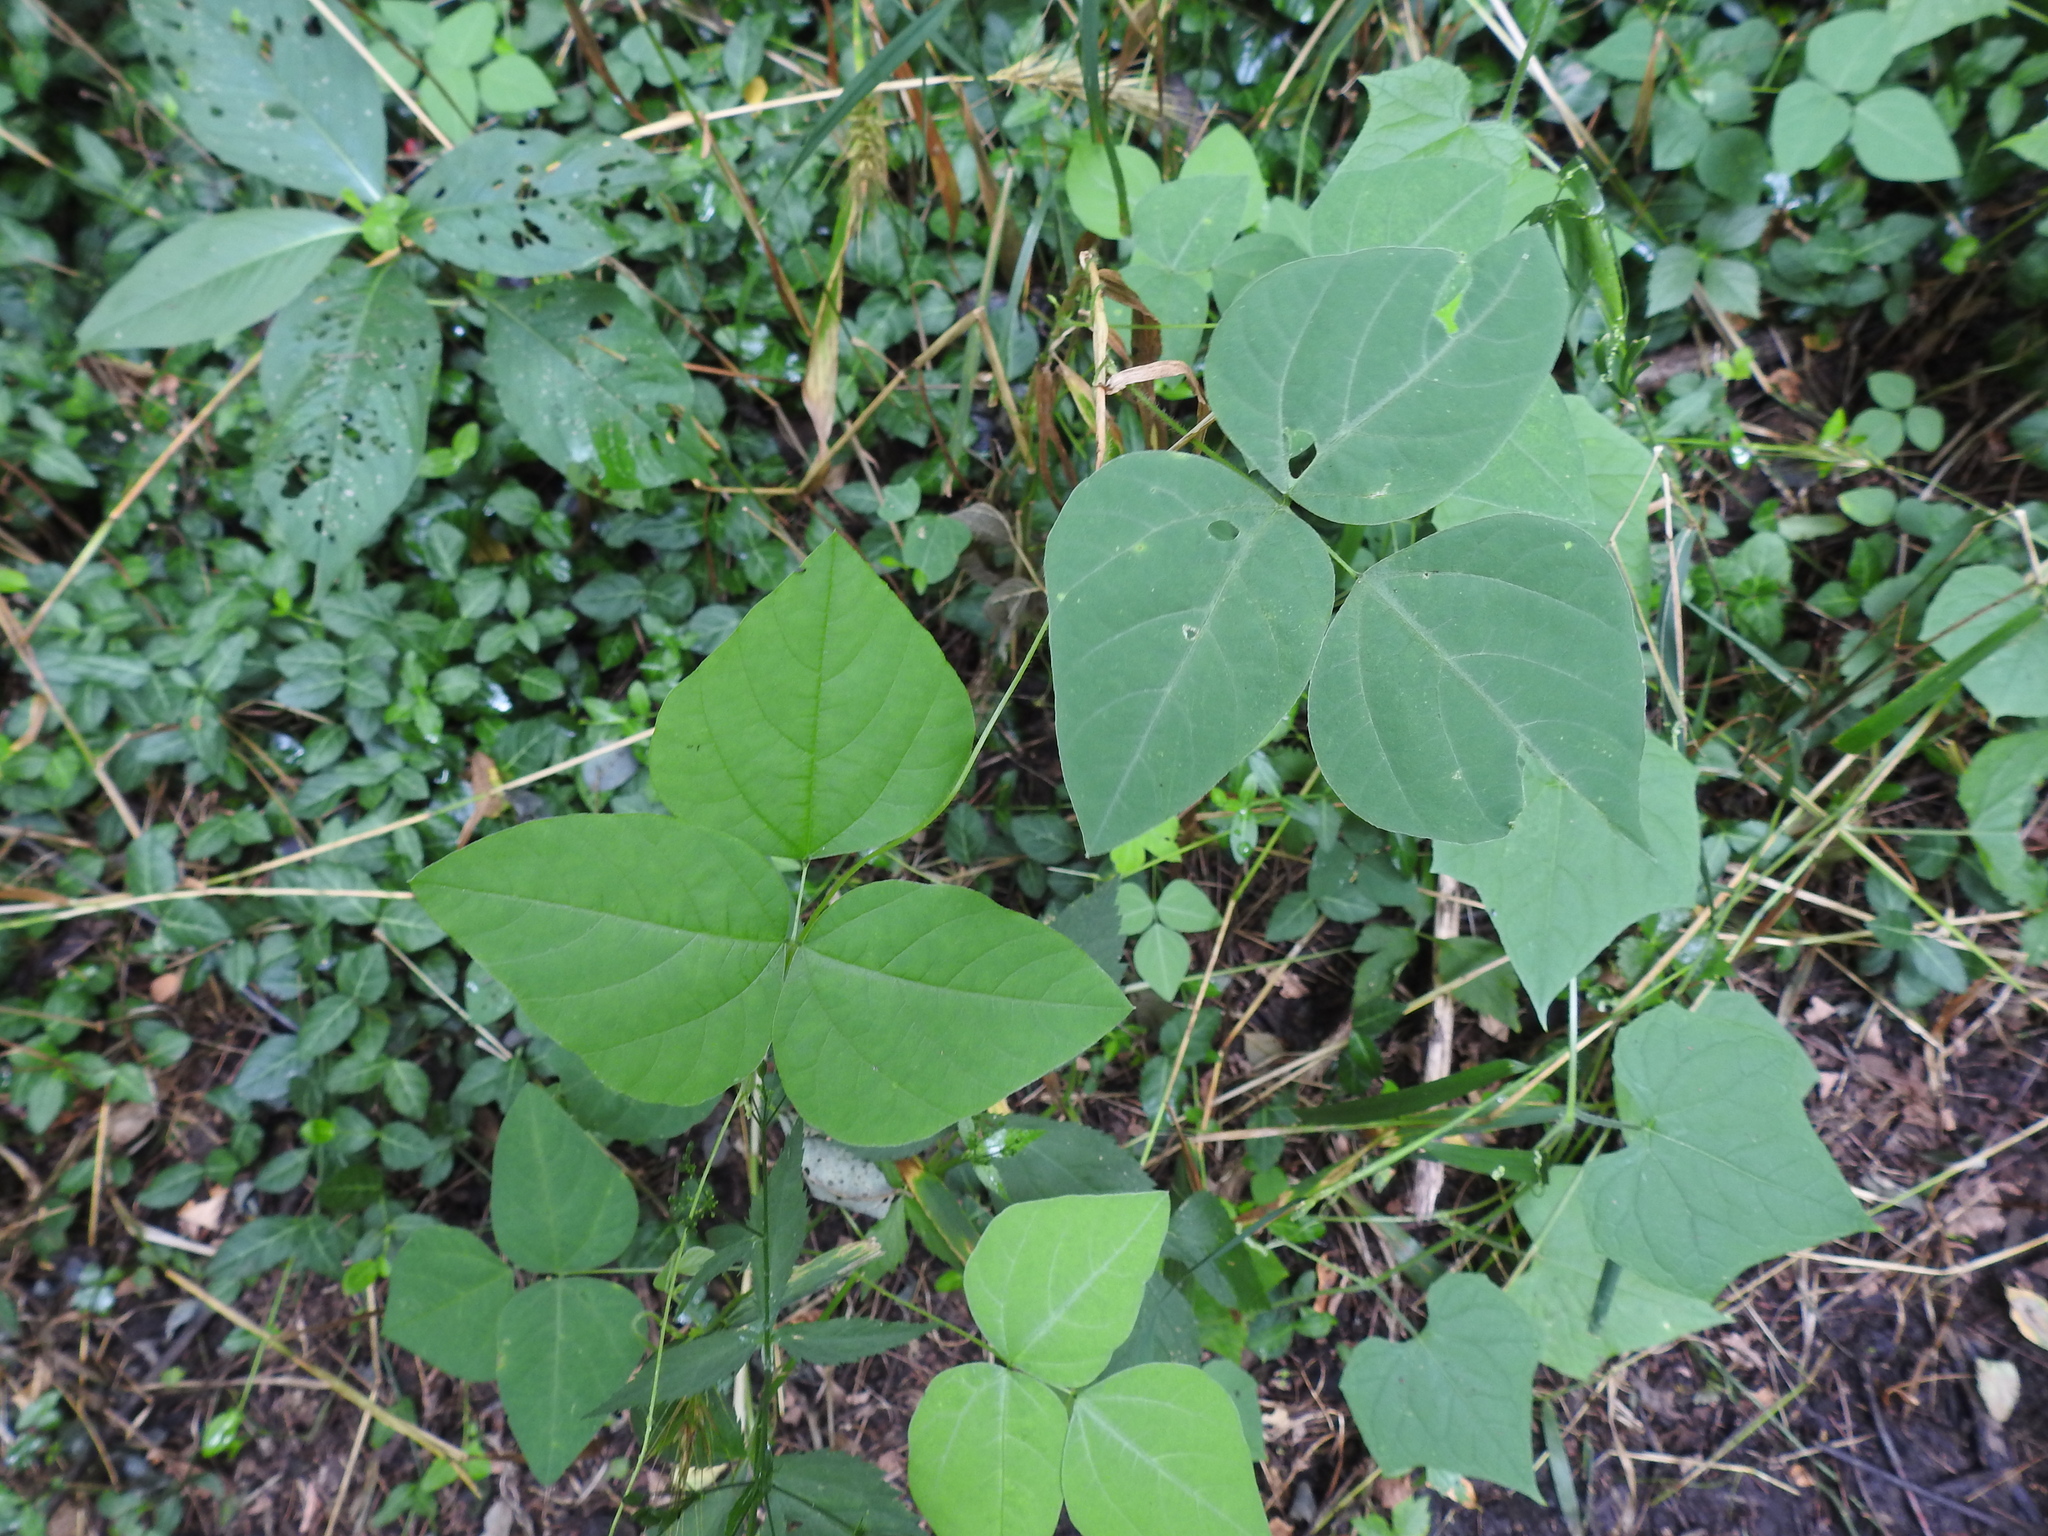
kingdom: Plantae
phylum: Tracheophyta
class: Magnoliopsida
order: Fabales
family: Fabaceae
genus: Amphicarpaea
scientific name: Amphicarpaea bracteata
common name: American hog peanut
